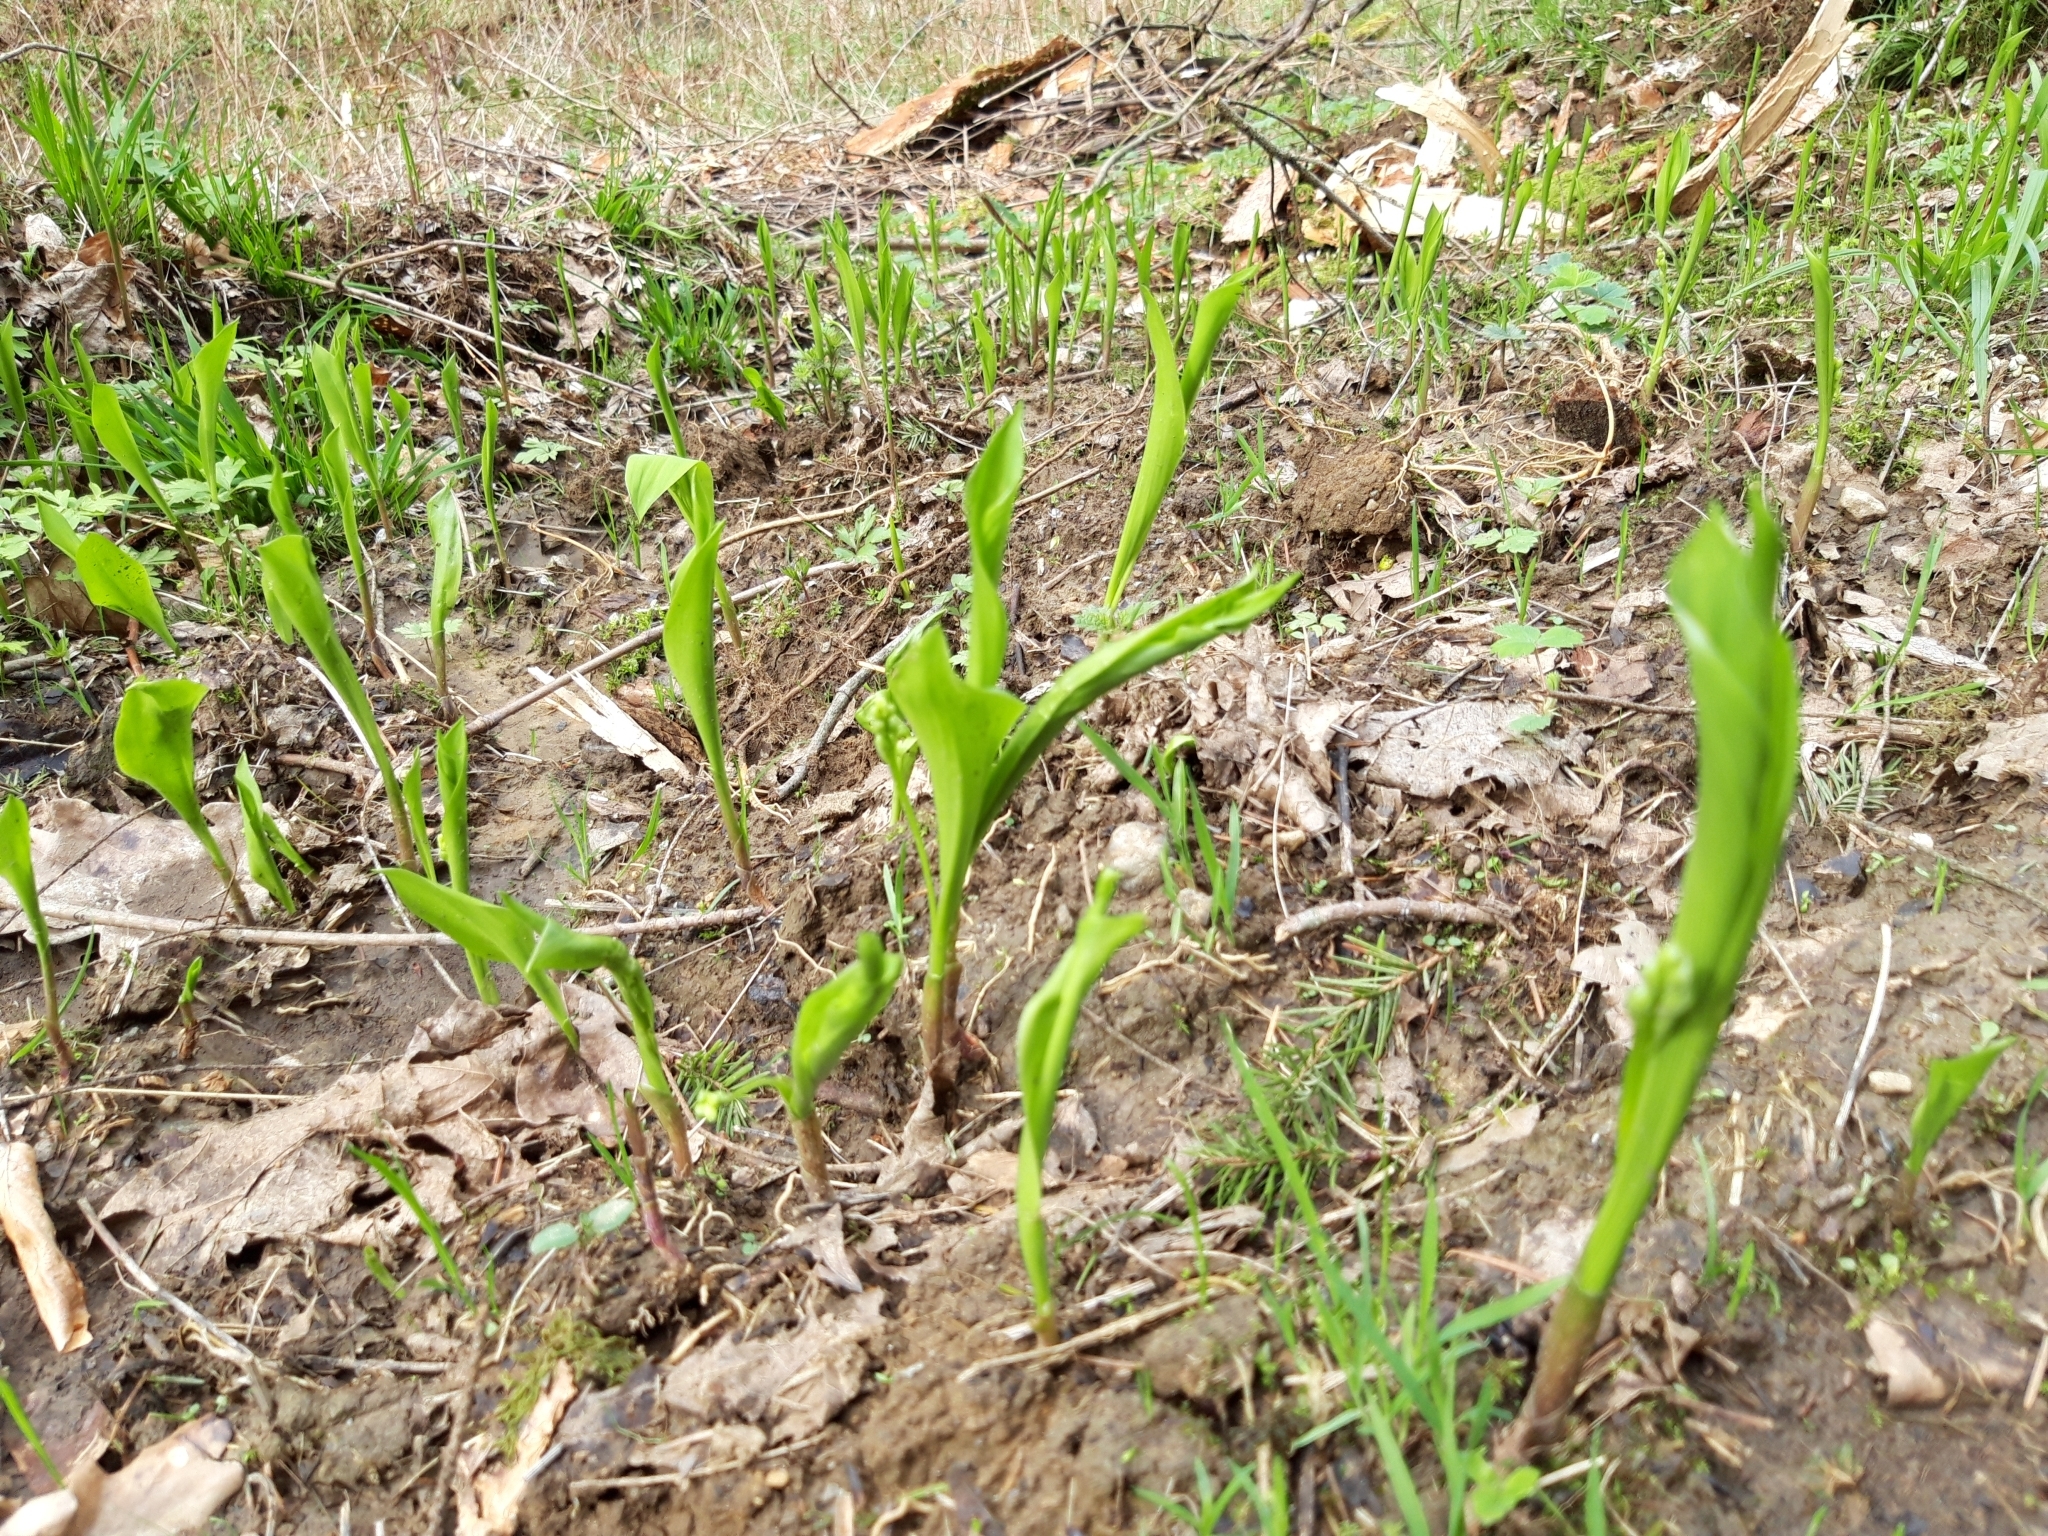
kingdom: Plantae
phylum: Tracheophyta
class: Liliopsida
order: Asparagales
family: Asparagaceae
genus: Convallaria
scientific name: Convallaria majalis
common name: Lily-of-the-valley
